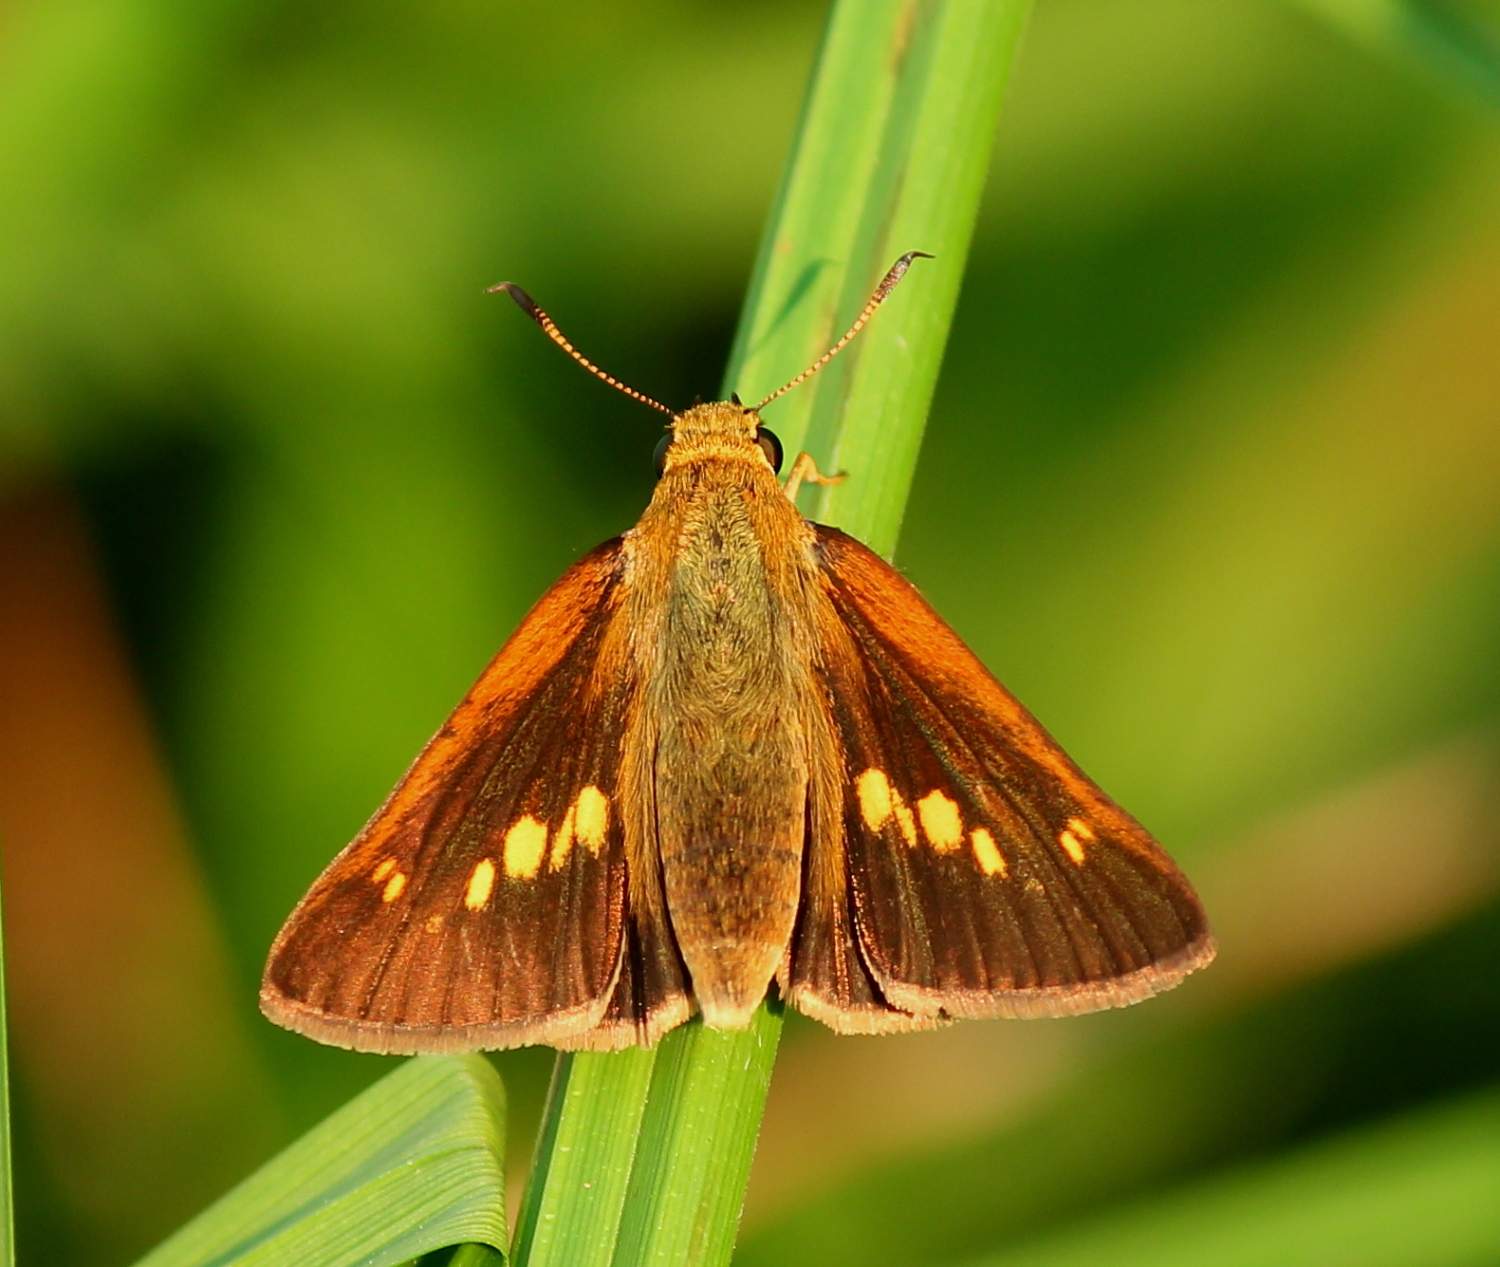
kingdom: Animalia
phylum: Arthropoda
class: Insecta
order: Lepidoptera
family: Hesperiidae
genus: Euphyes
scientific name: Euphyes dion
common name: Dion skipper
